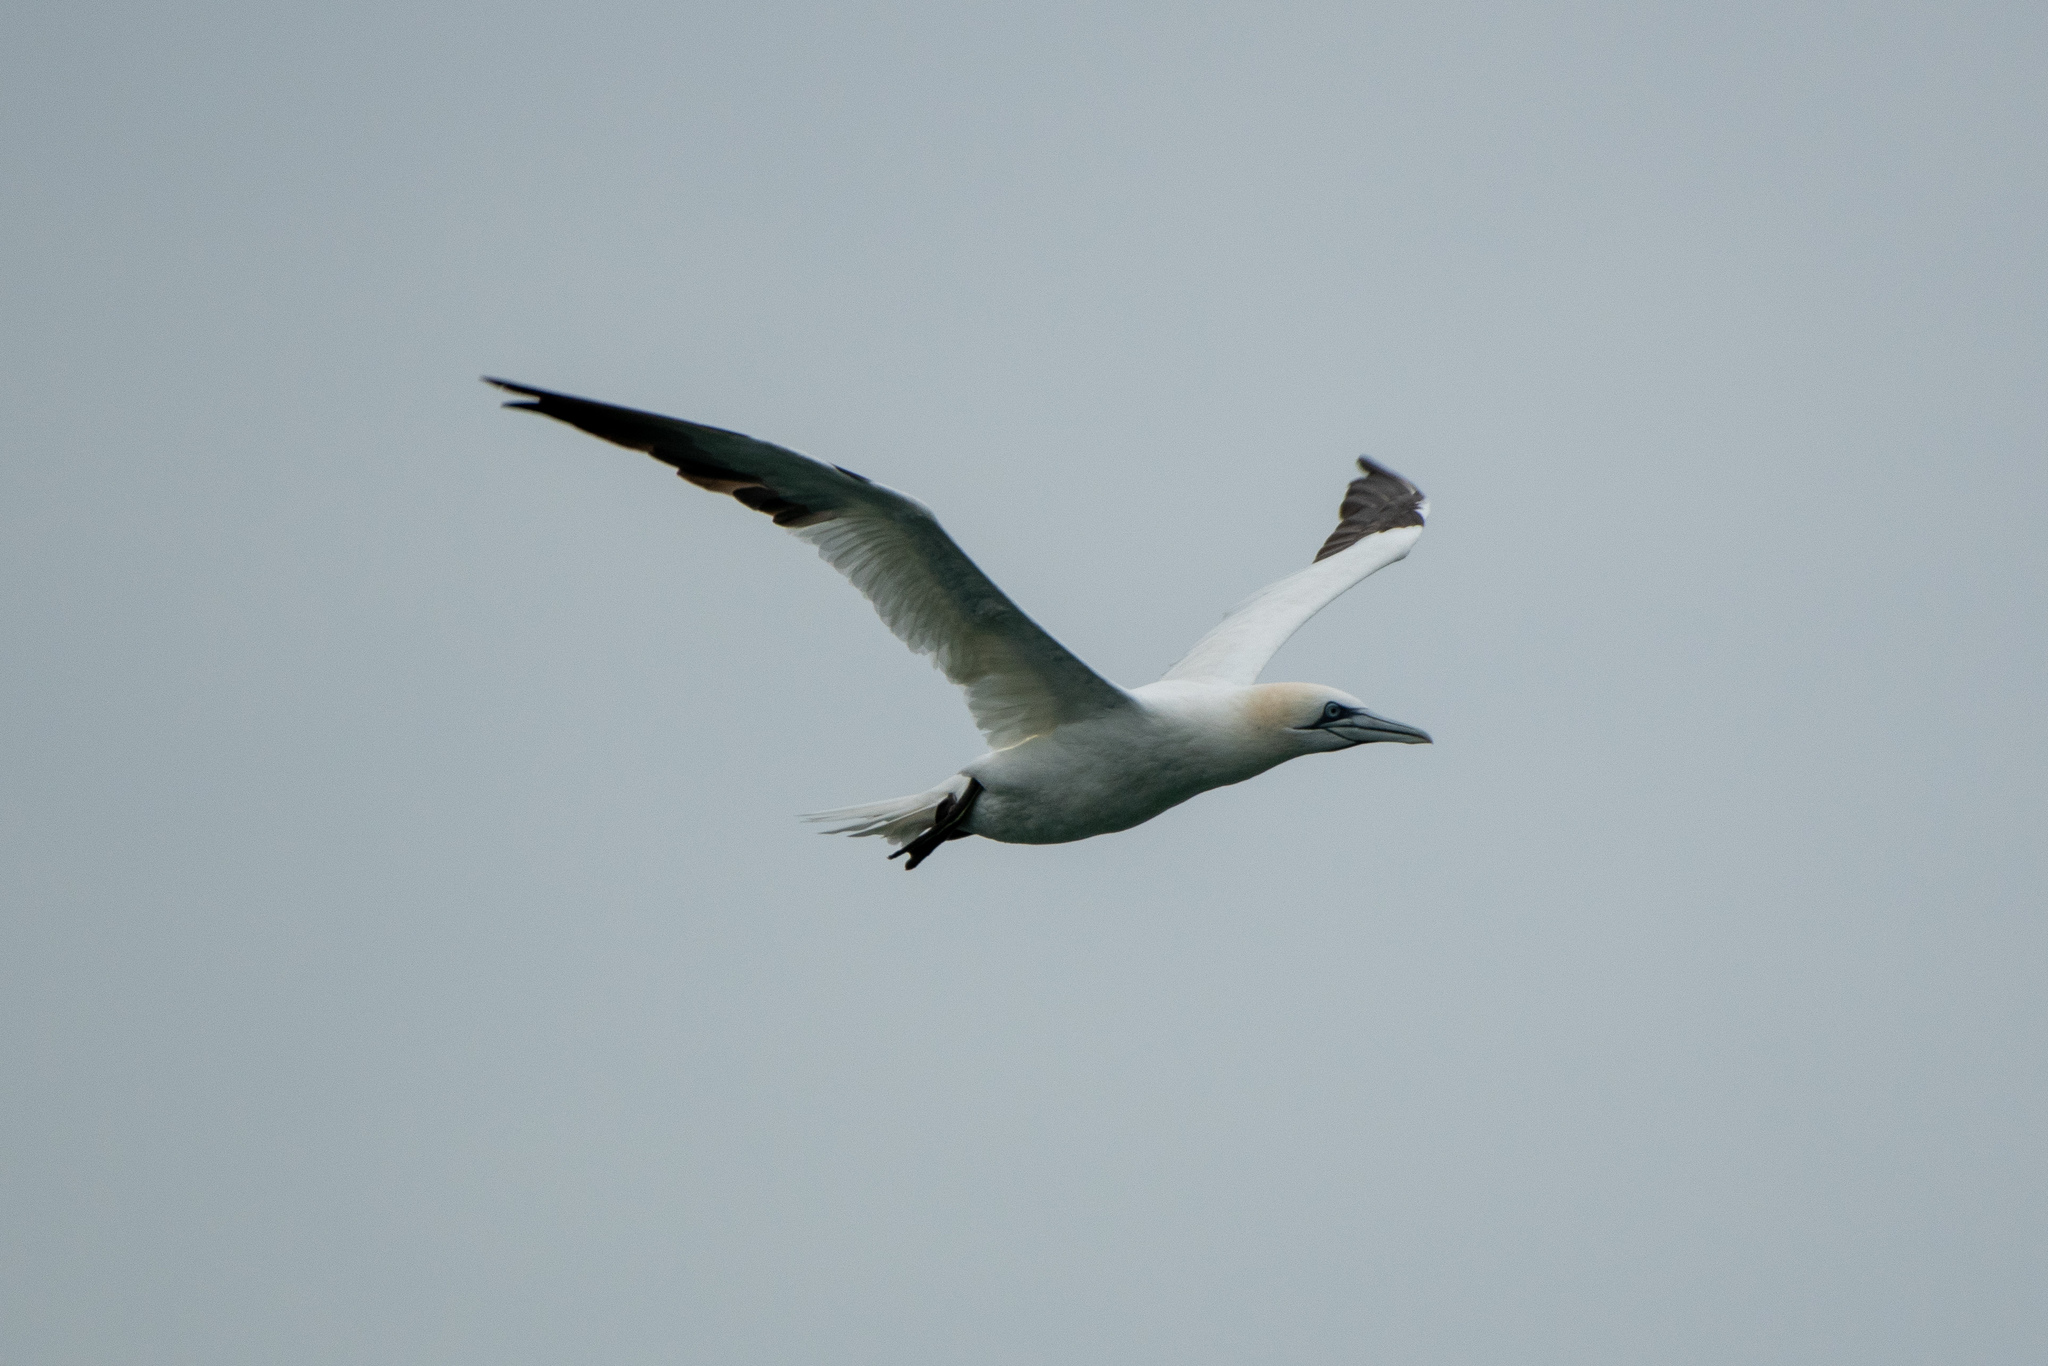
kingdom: Animalia
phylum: Chordata
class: Aves
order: Suliformes
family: Sulidae
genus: Morus
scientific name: Morus bassanus
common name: Northern gannet
